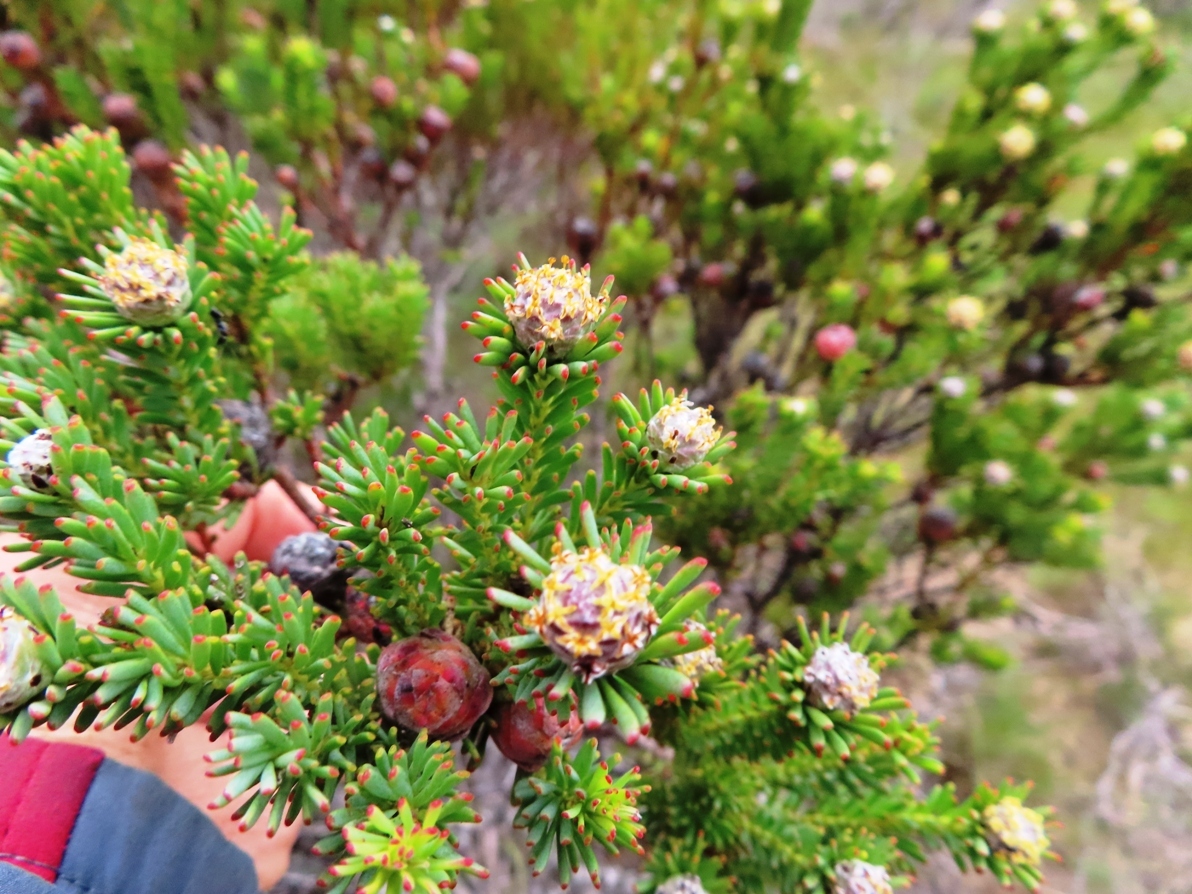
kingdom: Plantae
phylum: Tracheophyta
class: Magnoliopsida
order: Proteales
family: Proteaceae
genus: Leucadendron
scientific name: Leucadendron linifolium
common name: Line-leaf conebush
